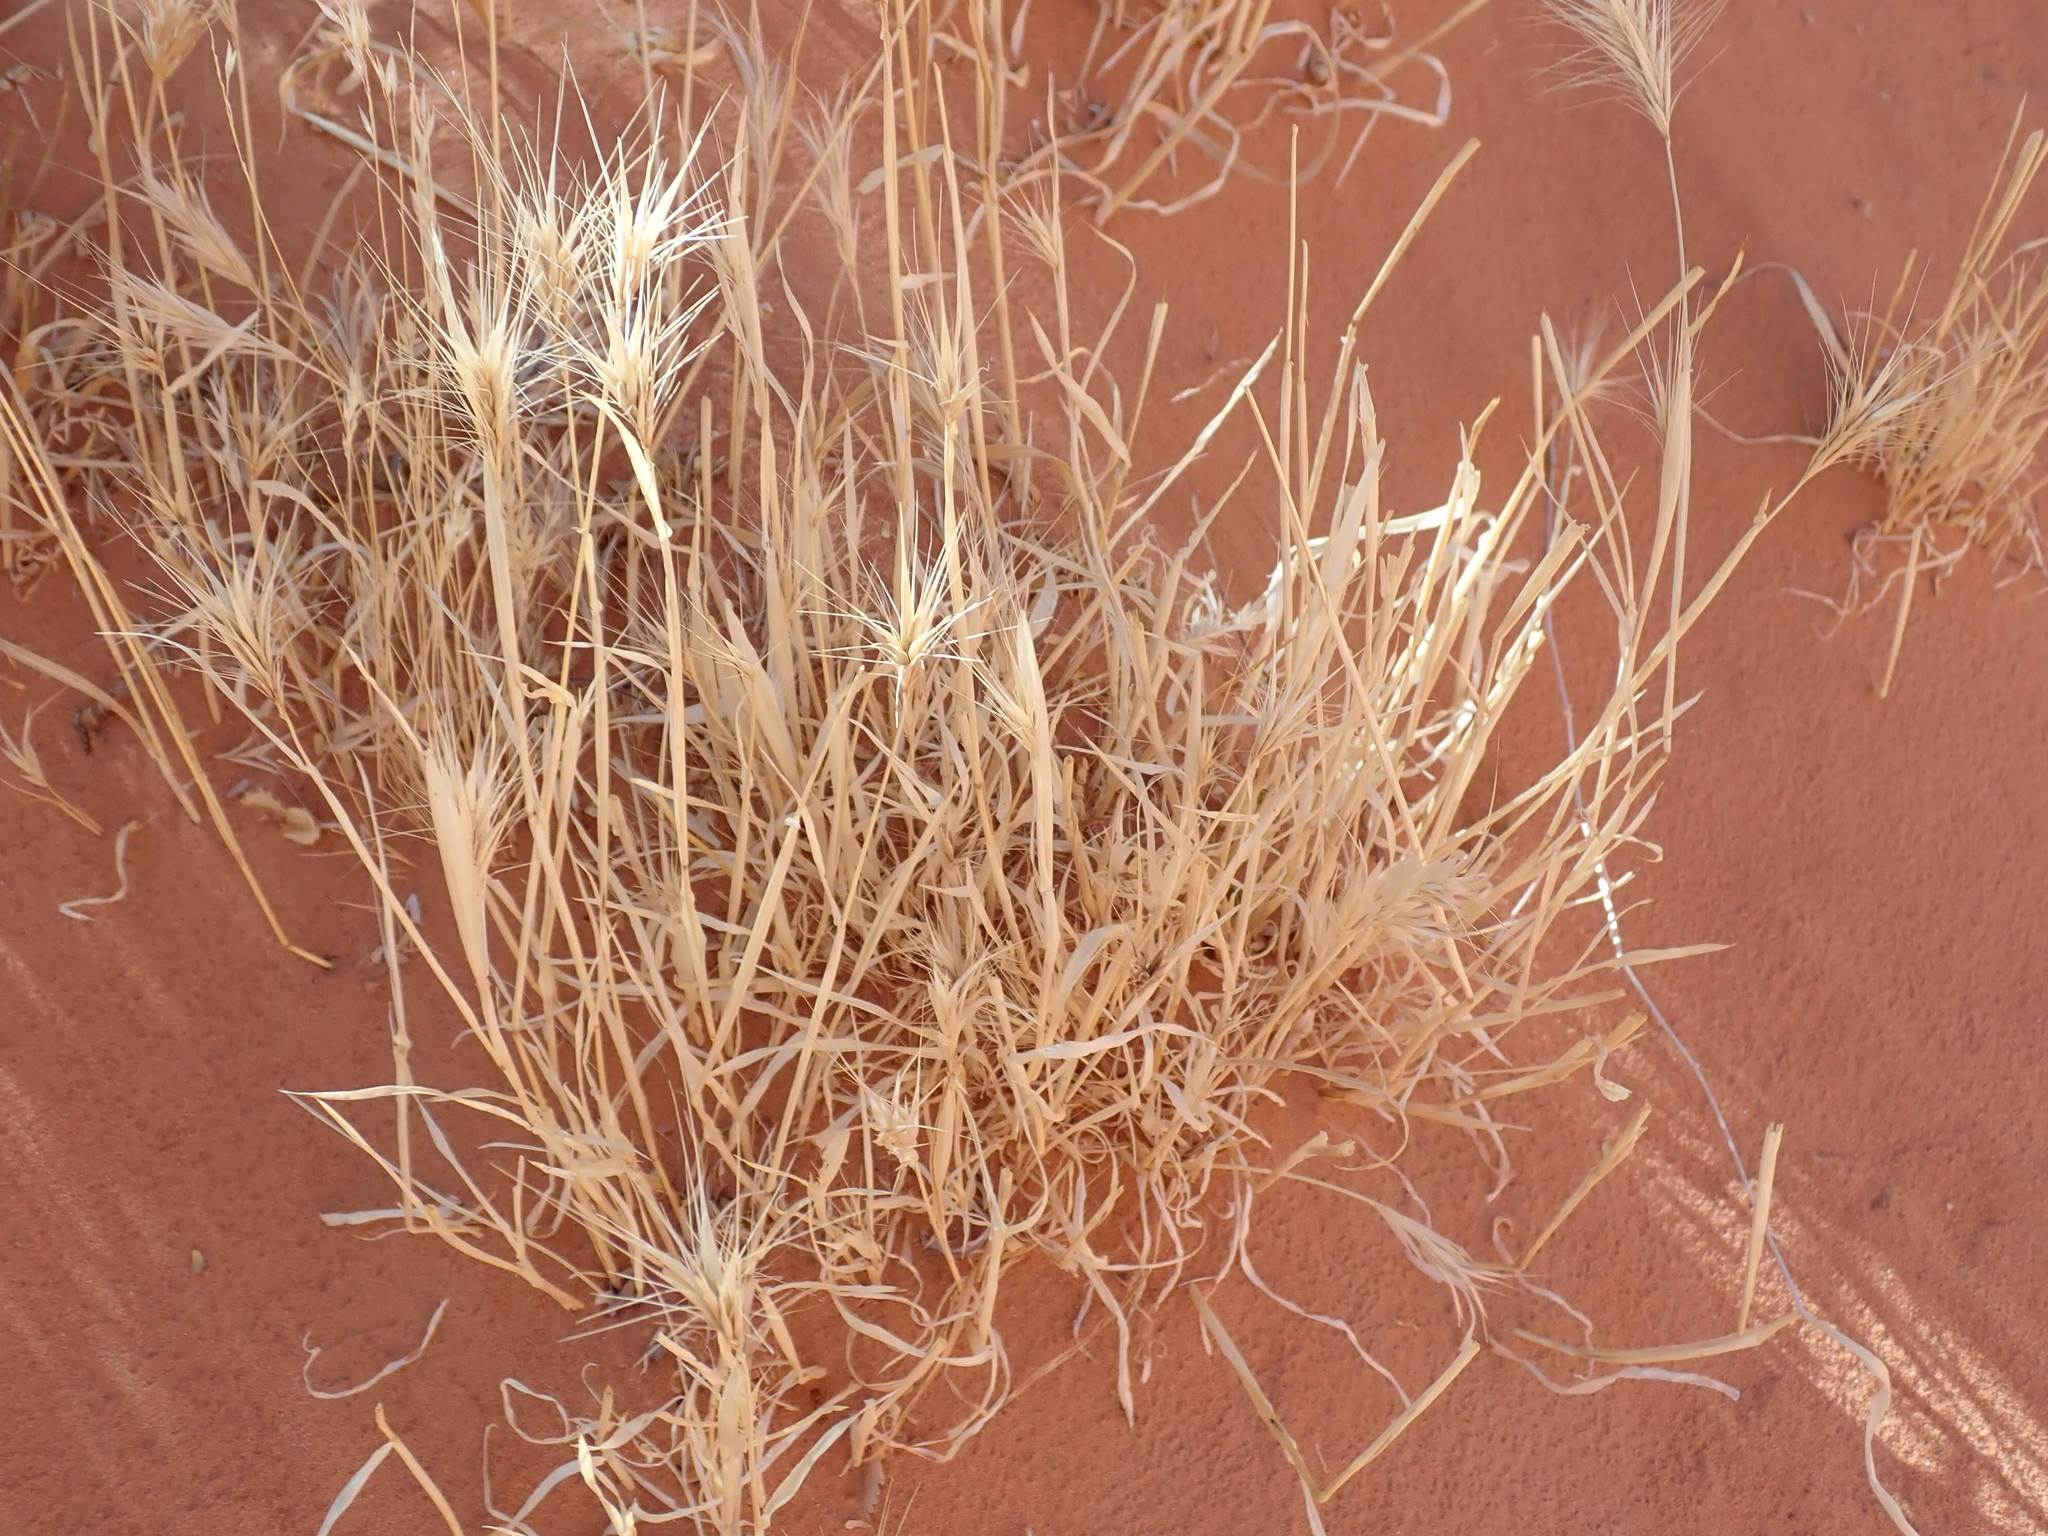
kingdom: Plantae
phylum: Tracheophyta
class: Liliopsida
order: Poales
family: Poaceae
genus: Bromus
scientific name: Bromus rubens
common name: Red brome
